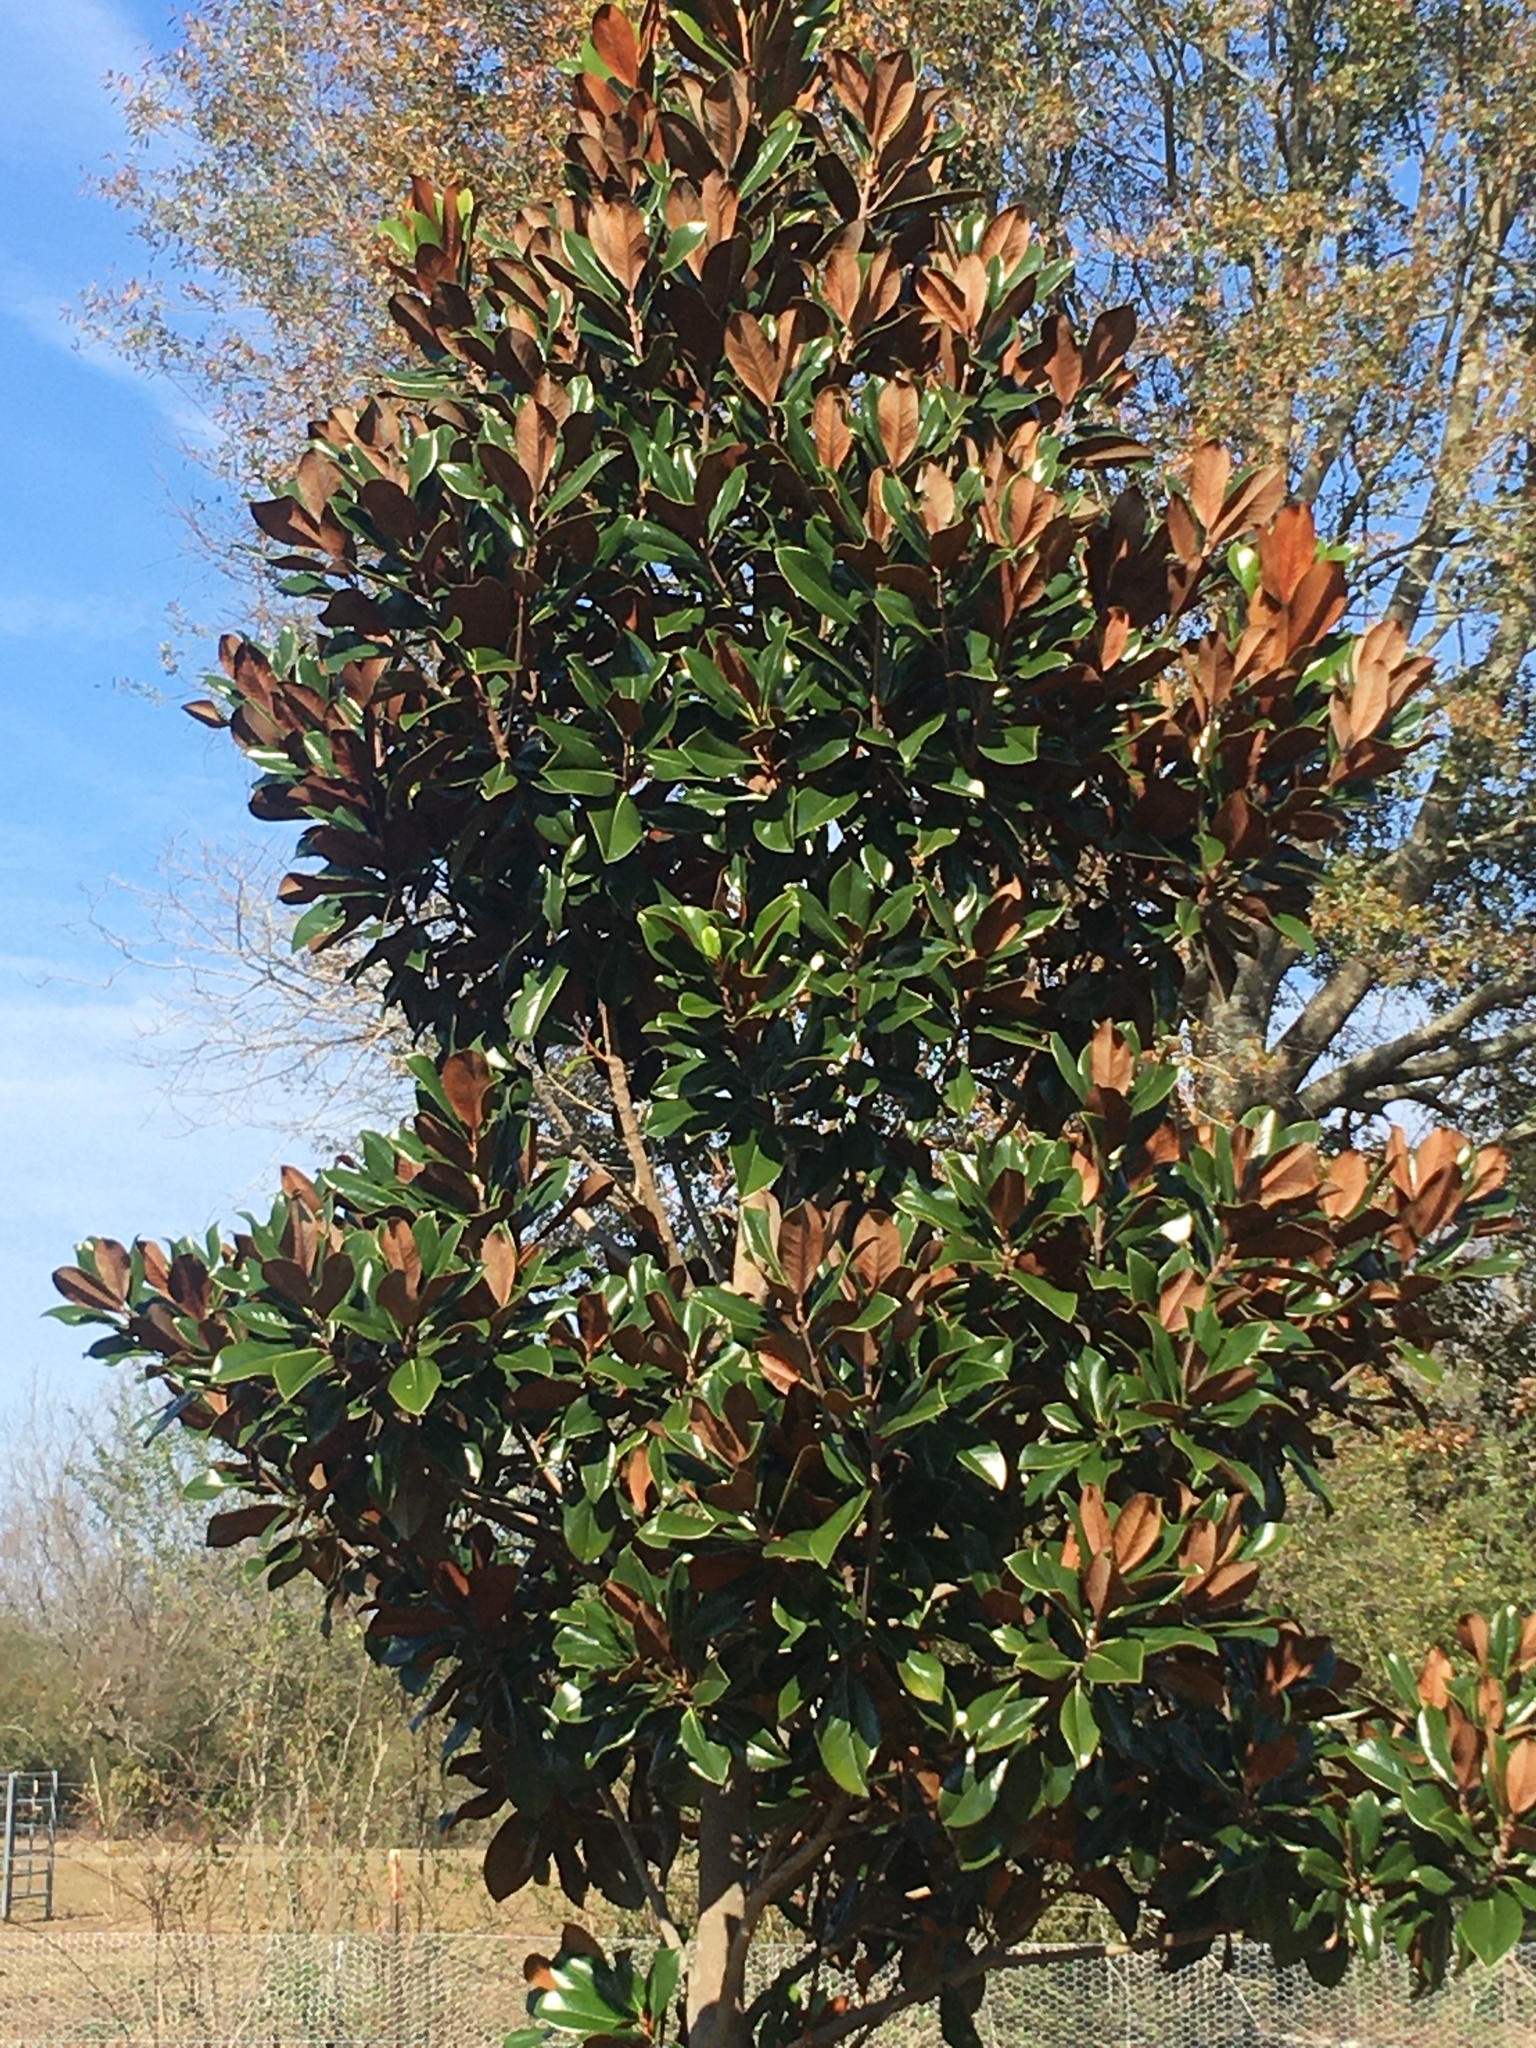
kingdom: Plantae
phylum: Tracheophyta
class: Magnoliopsida
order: Magnoliales
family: Magnoliaceae
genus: Magnolia
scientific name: Magnolia grandiflora
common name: Southern magnolia
